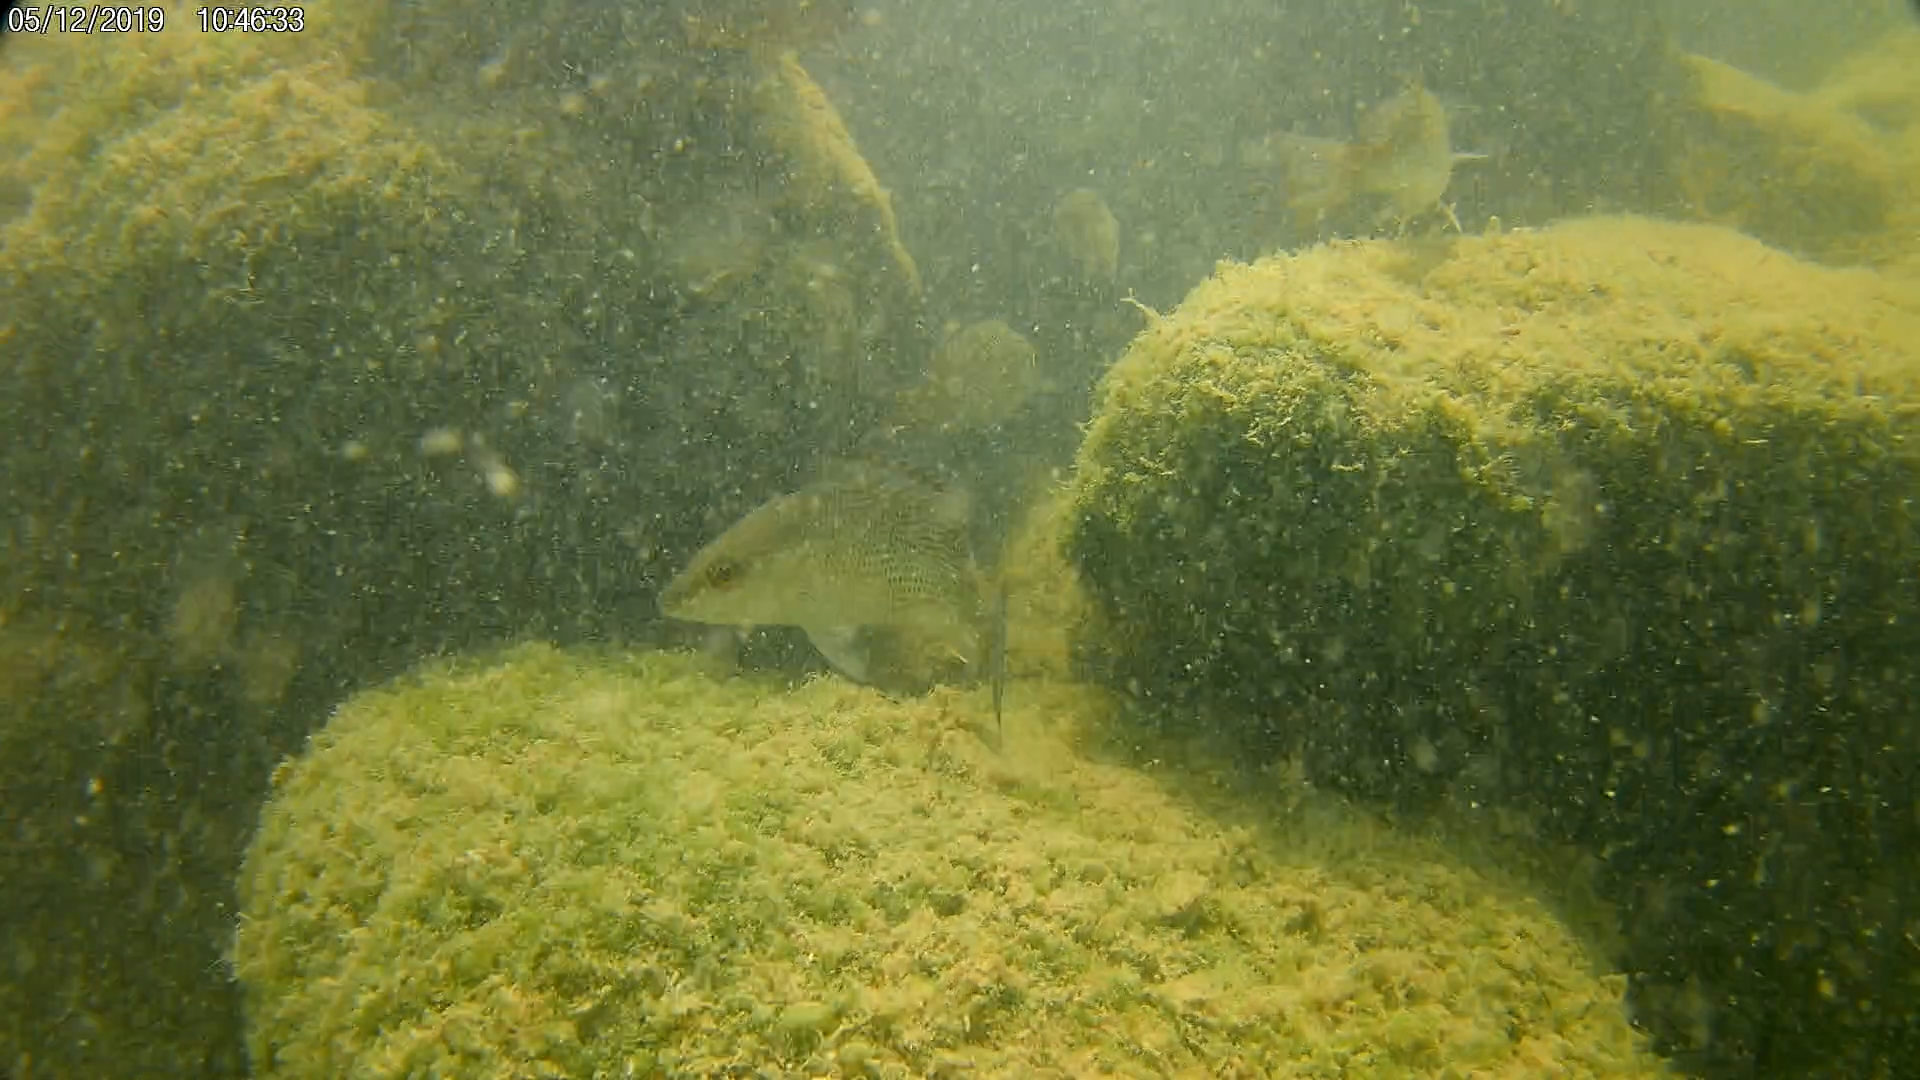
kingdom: Animalia
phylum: Chordata
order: Perciformes
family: Lutjanidae
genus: Lutjanus
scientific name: Lutjanus griseus
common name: Gray snapper
